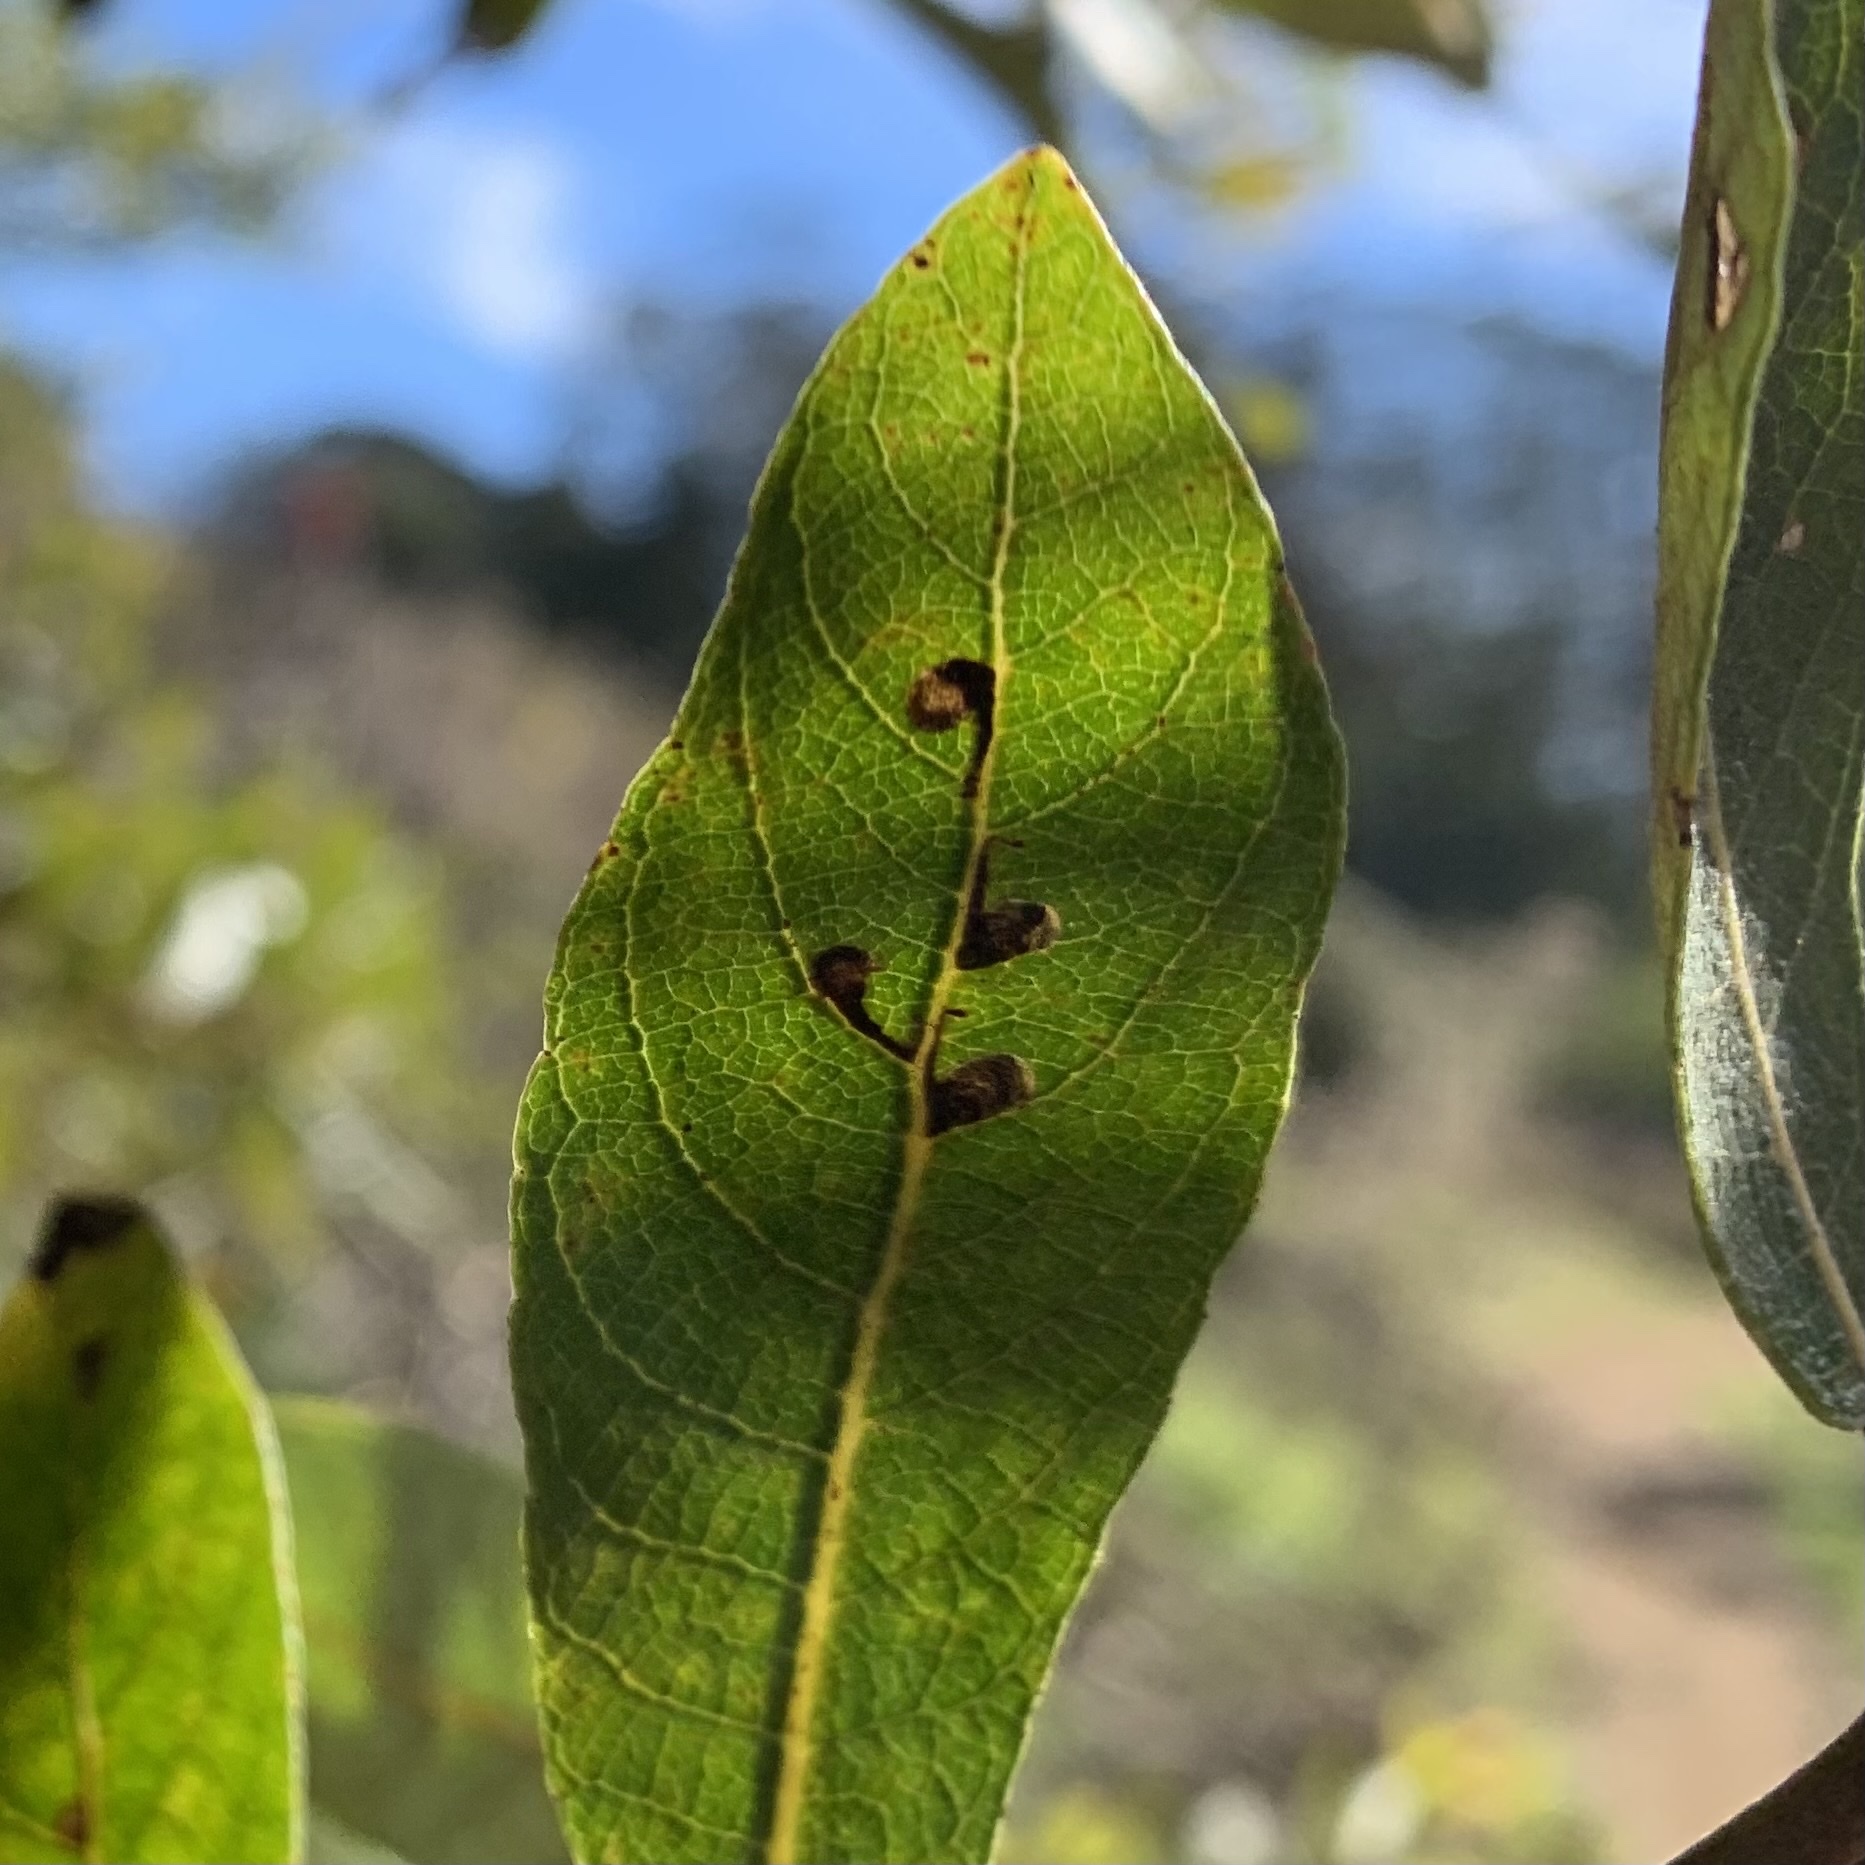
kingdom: Animalia
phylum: Arthropoda
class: Insecta
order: Lepidoptera
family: Heliozelidae
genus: Coptodisca
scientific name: Coptodisca saliciella
